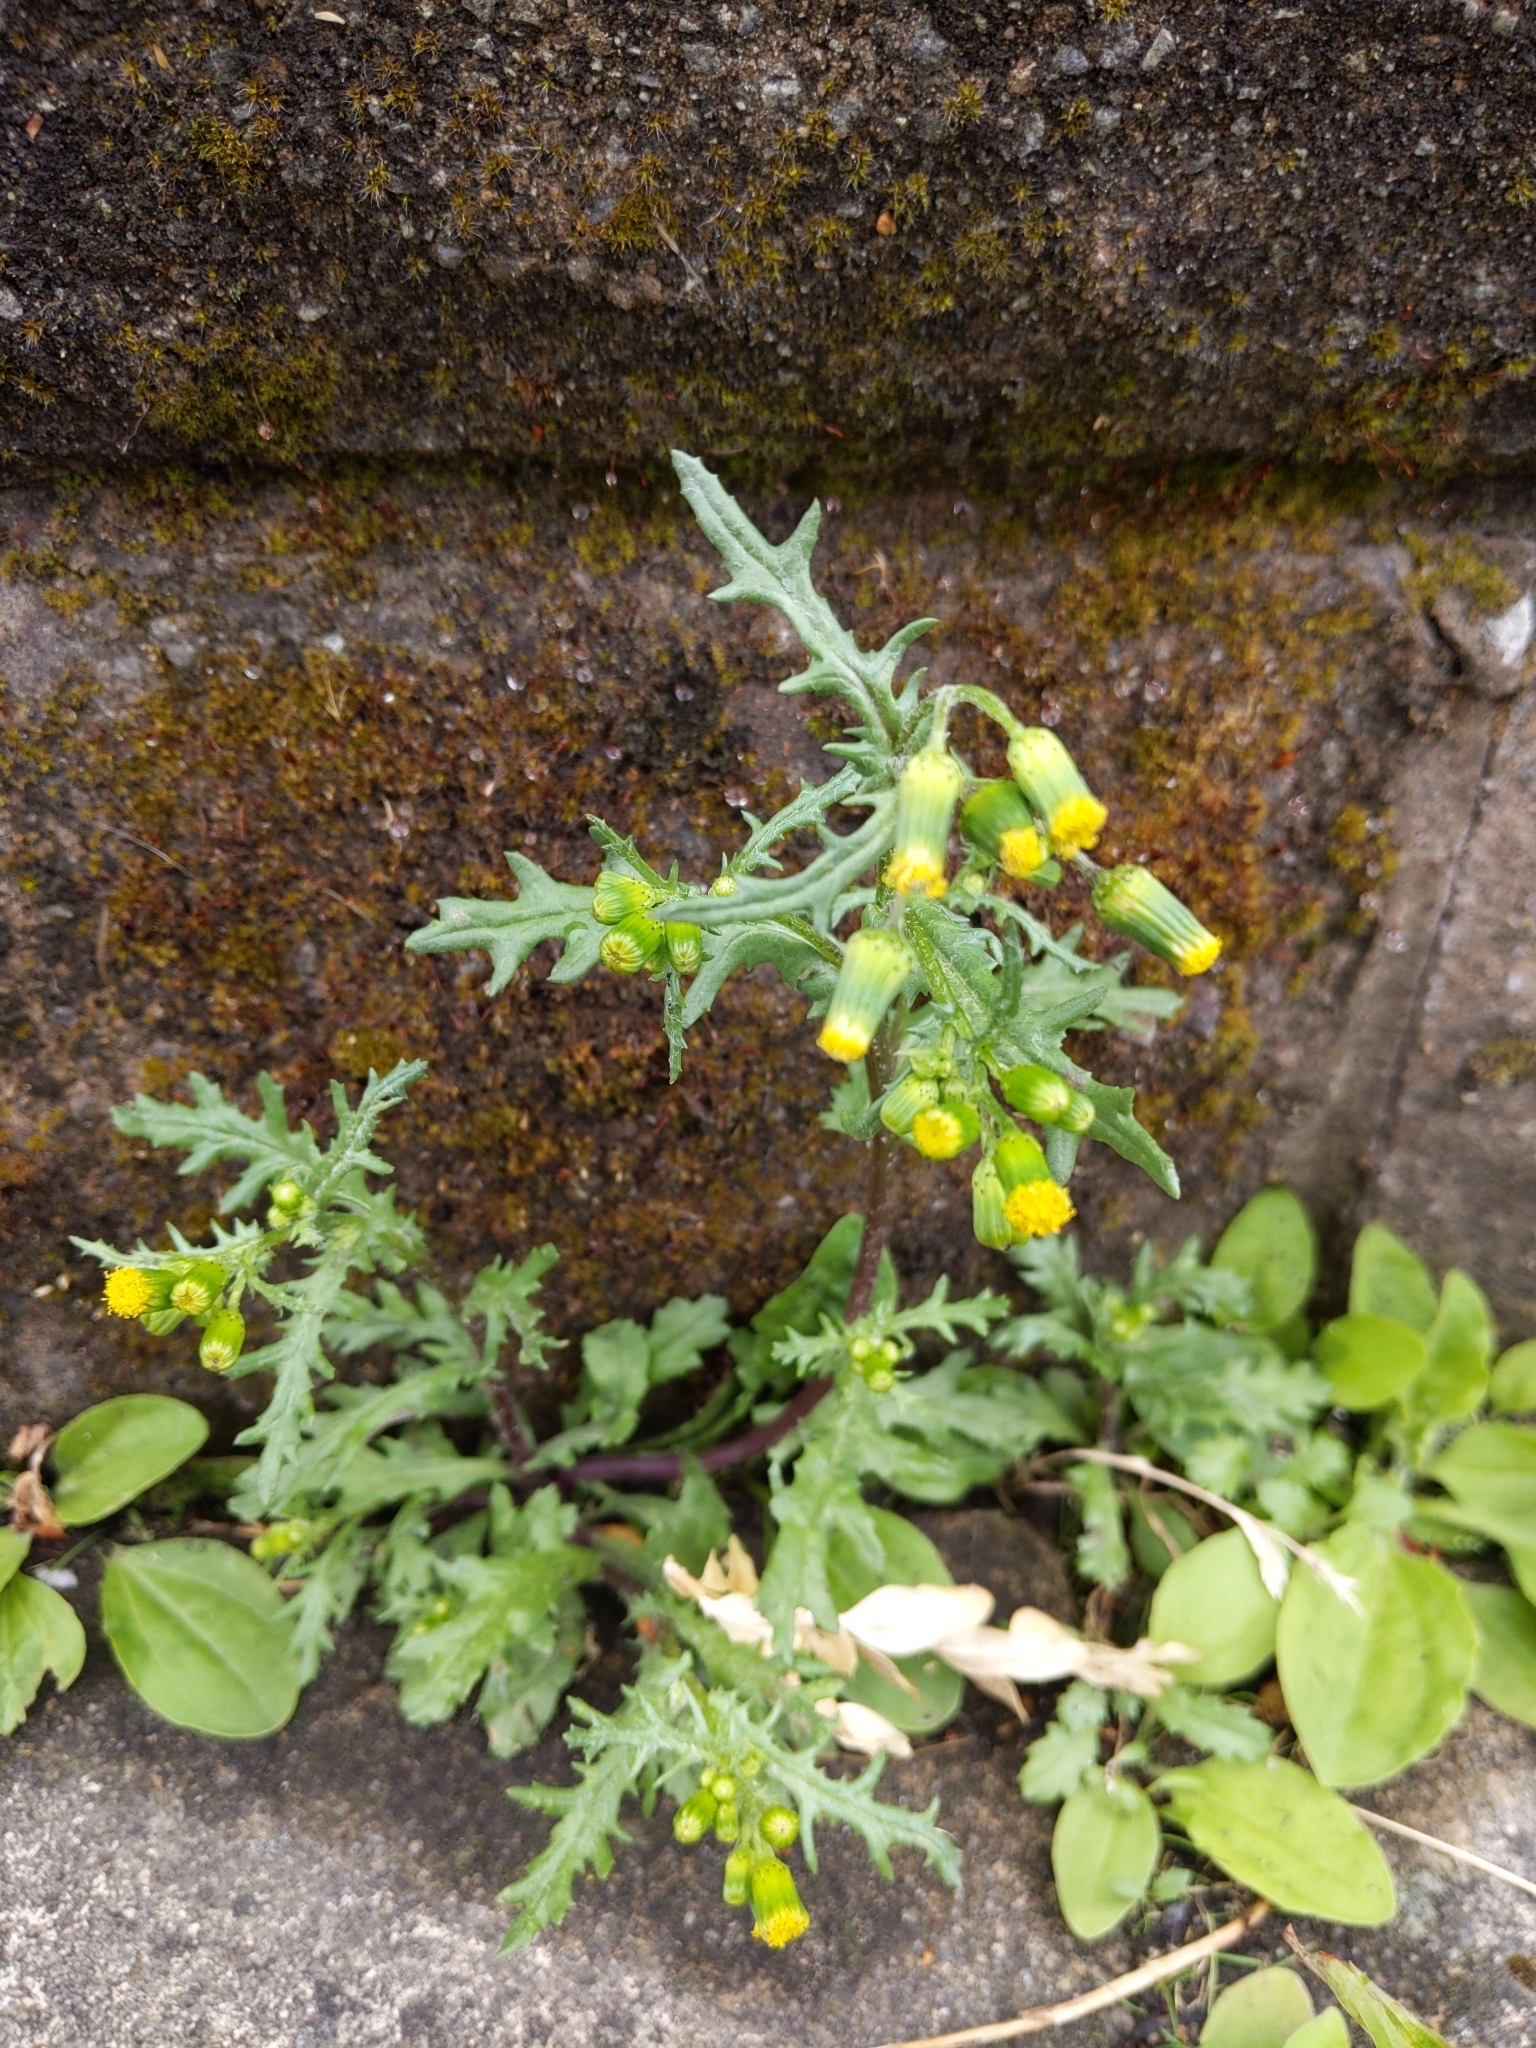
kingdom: Plantae
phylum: Tracheophyta
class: Magnoliopsida
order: Asterales
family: Asteraceae
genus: Senecio
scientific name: Senecio vulgaris
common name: Old-man-in-the-spring
